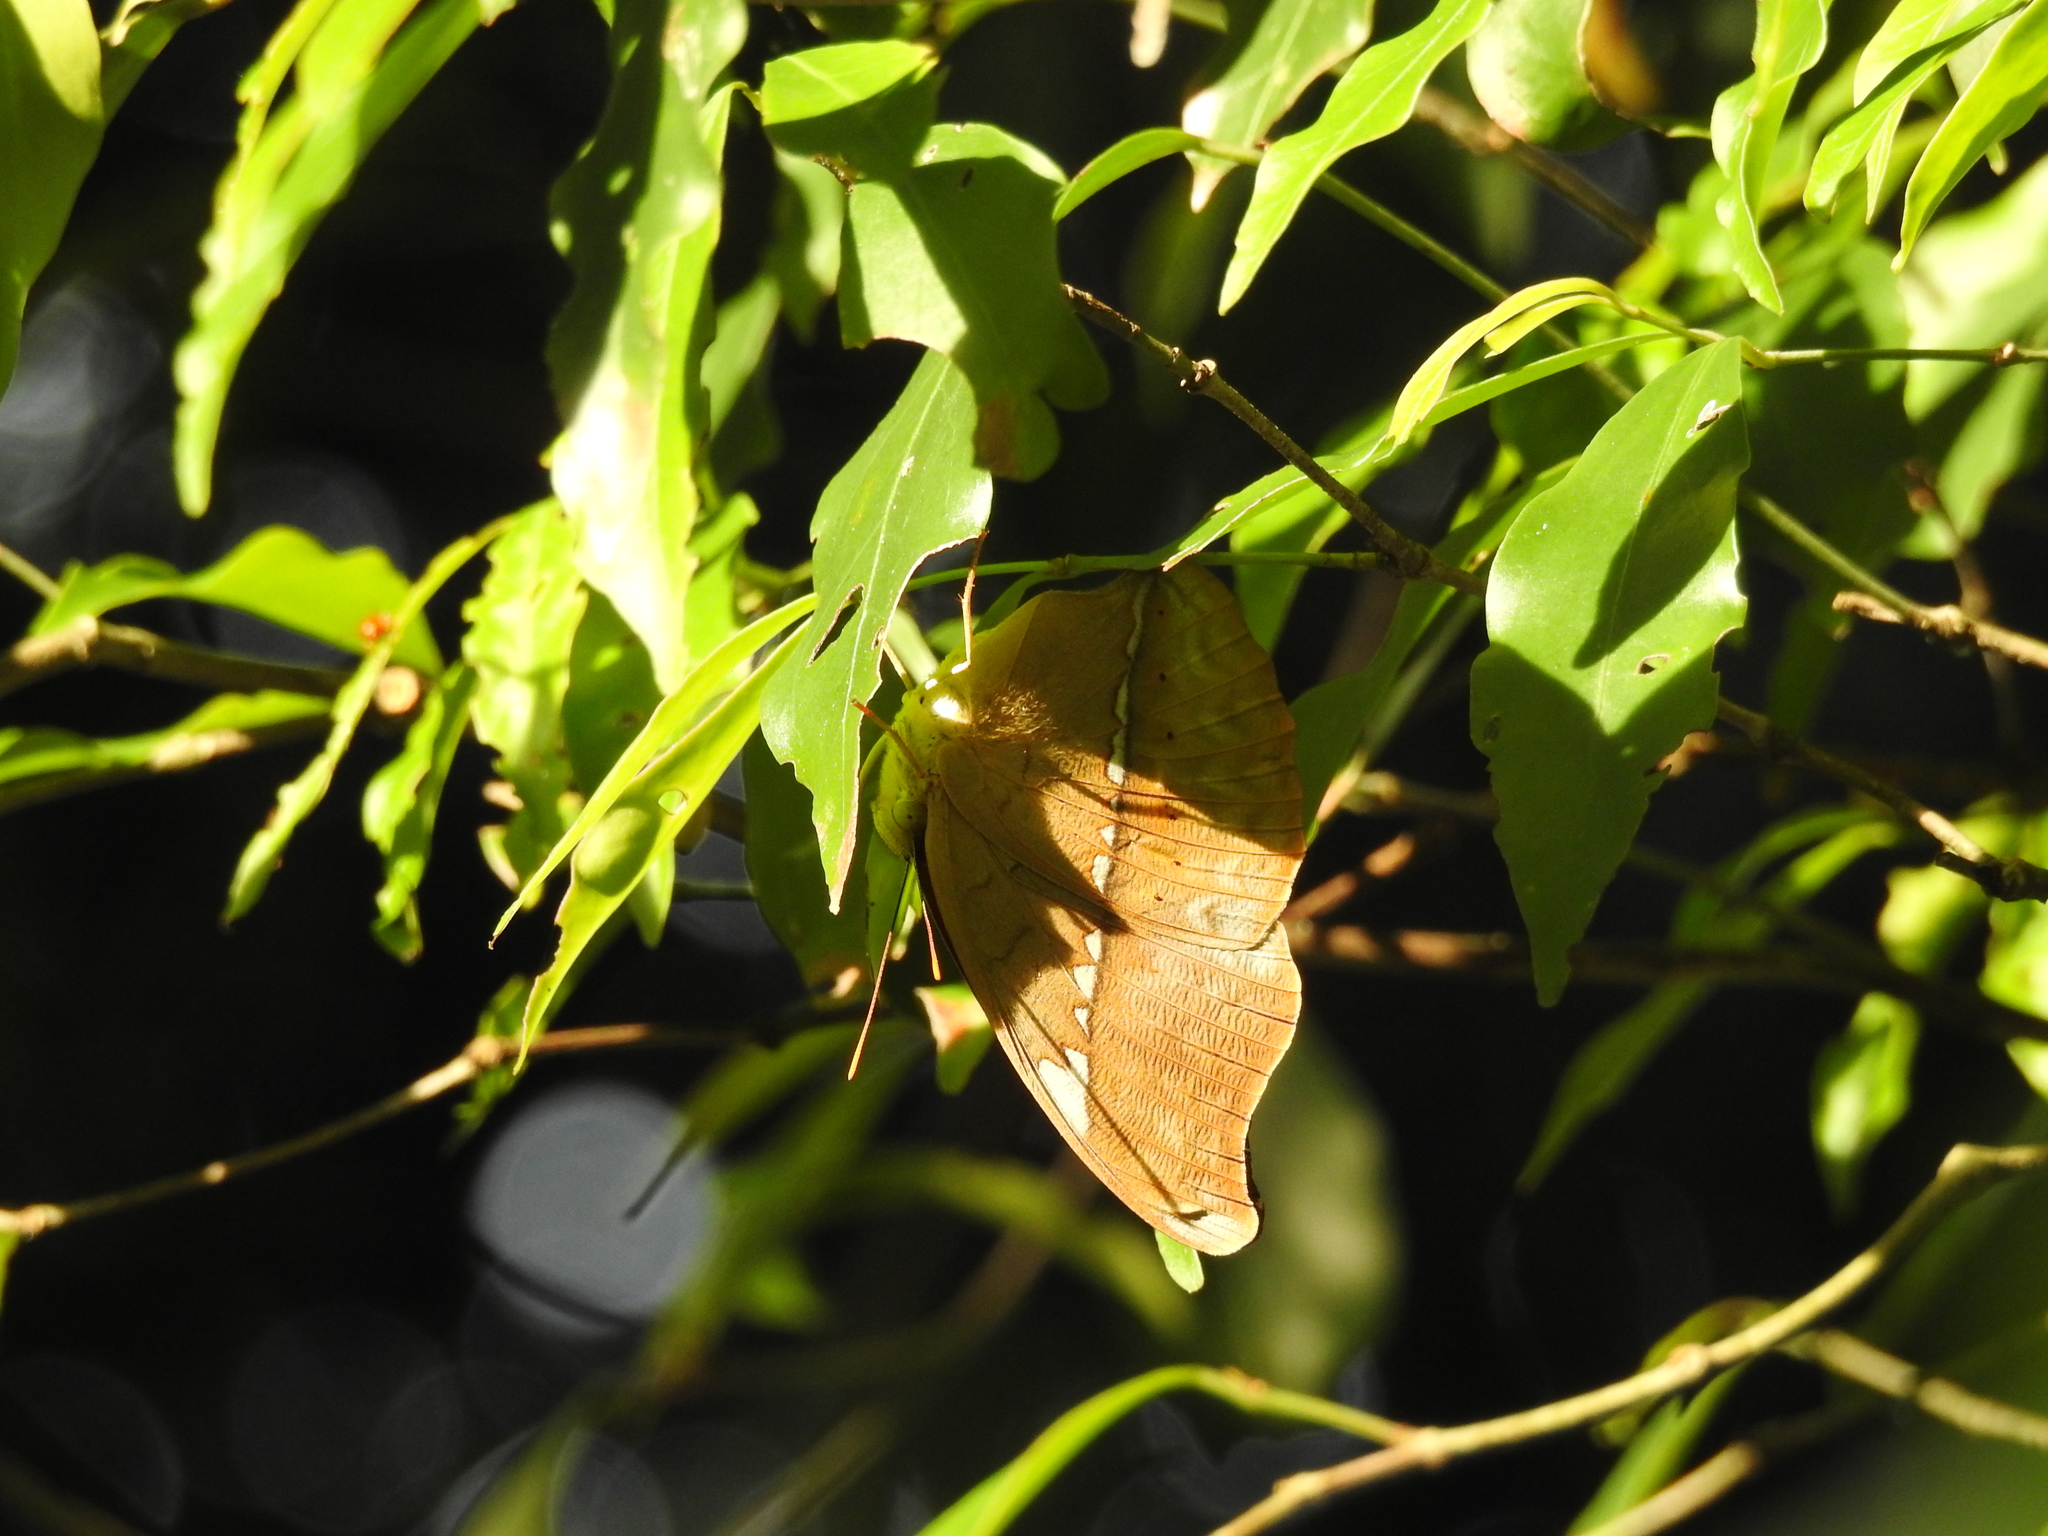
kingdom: Animalia
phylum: Arthropoda
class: Insecta
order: Lepidoptera
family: Nymphalidae
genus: Cirrochroa
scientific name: Cirrochroa thais
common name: Tamil yeoman
